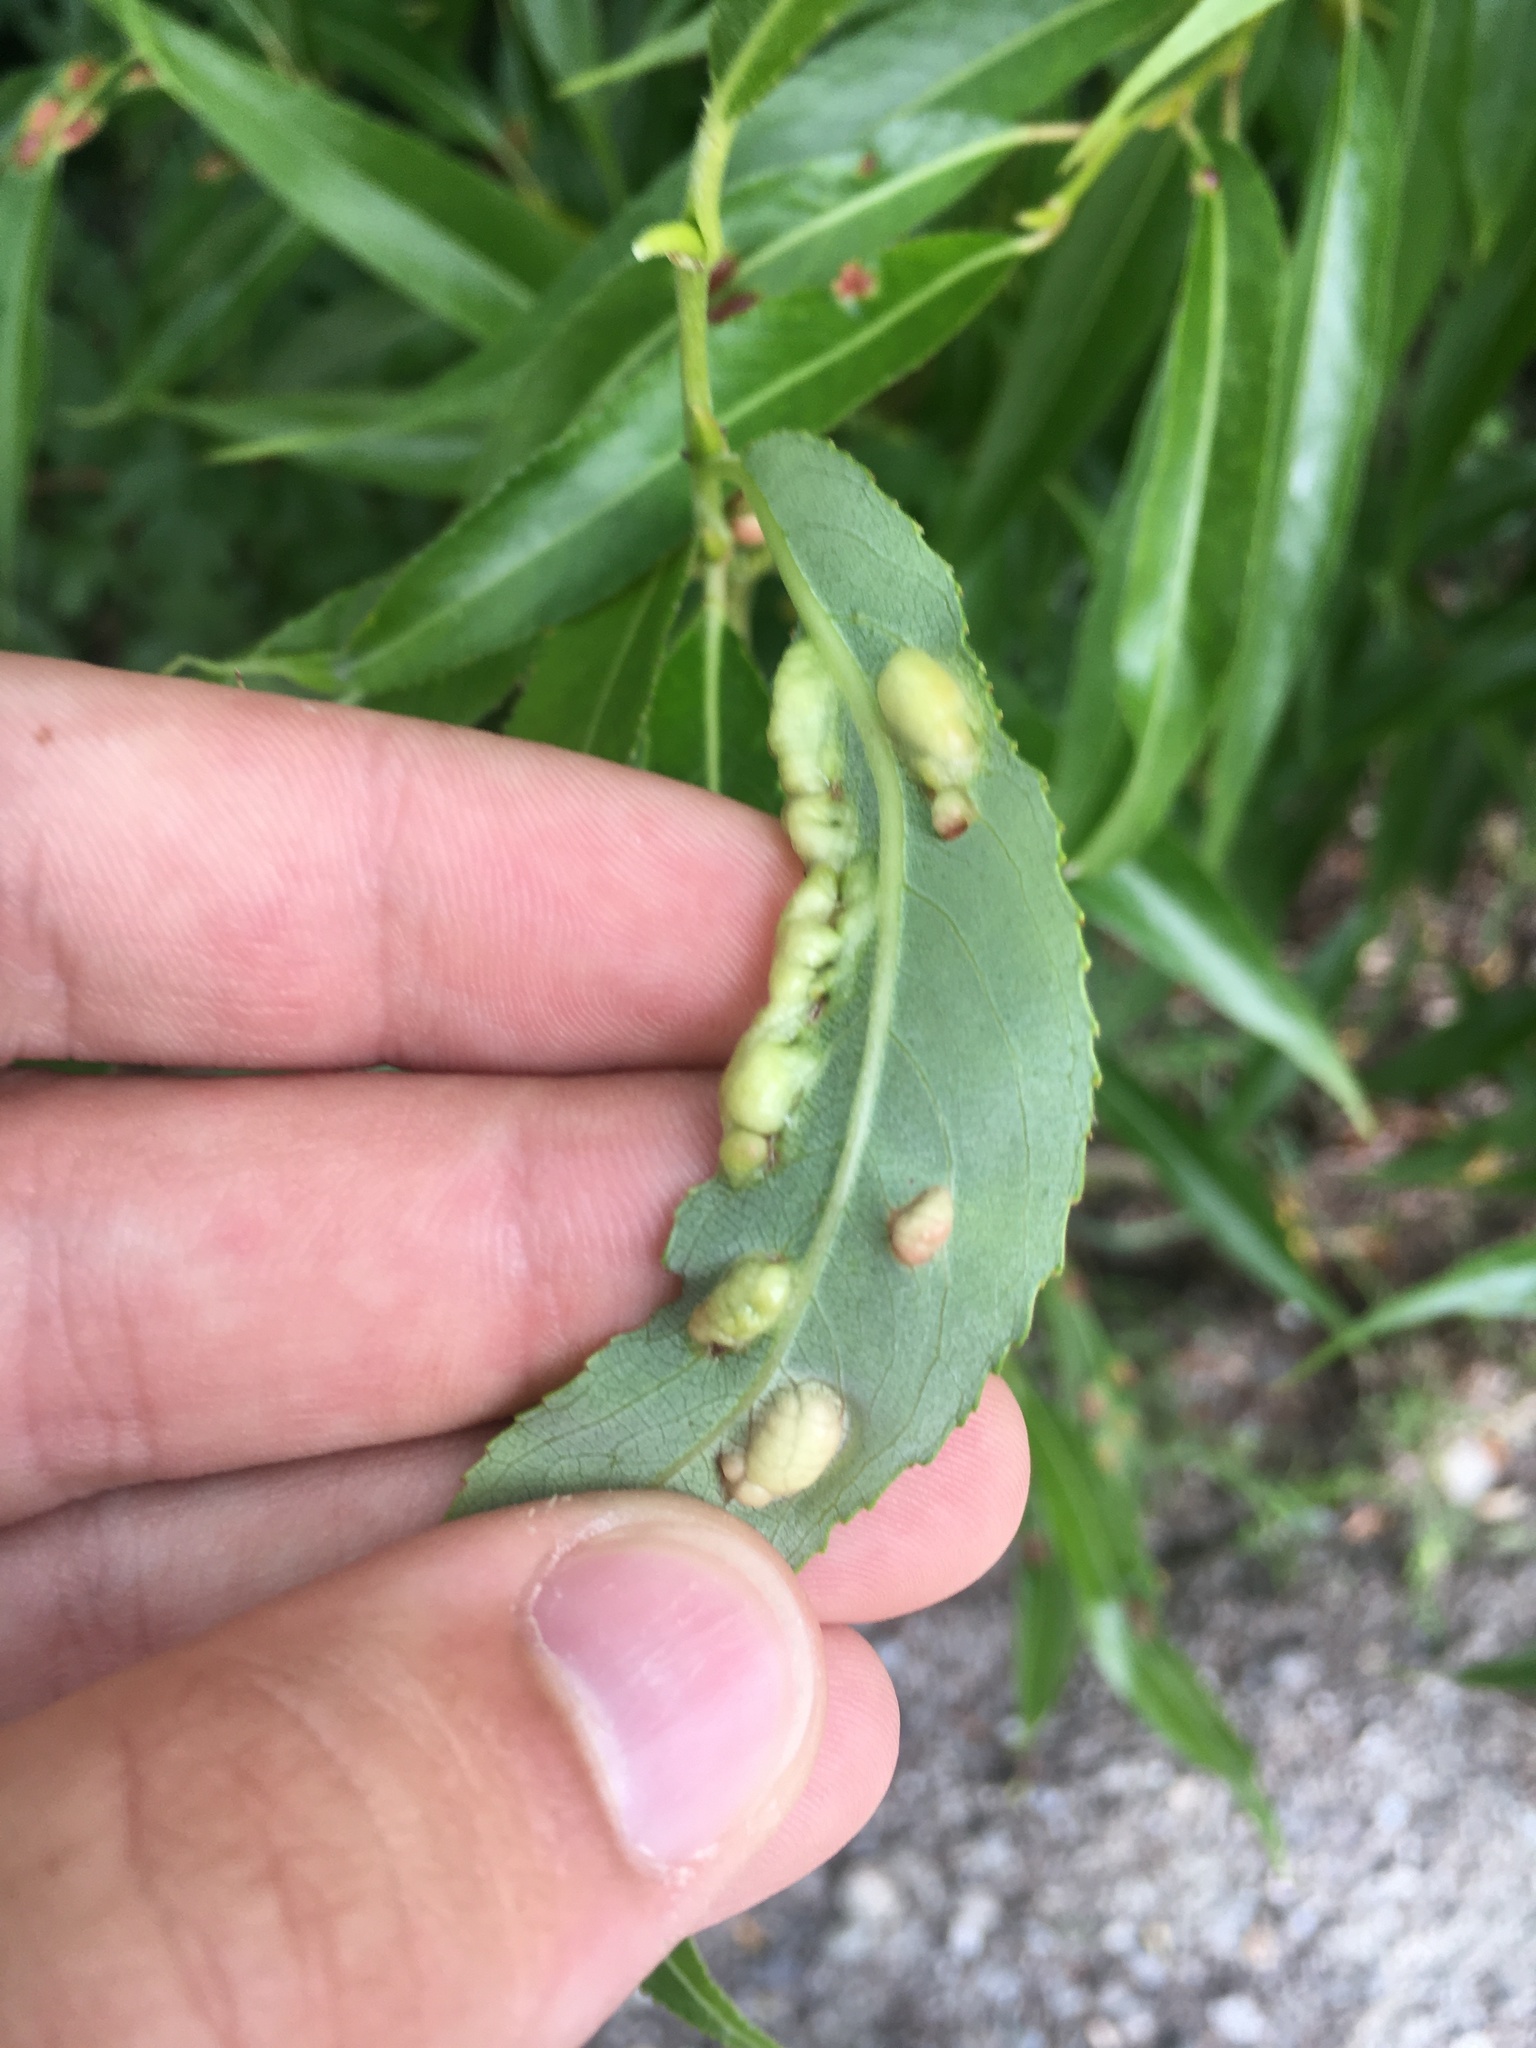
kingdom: Animalia
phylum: Arthropoda
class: Insecta
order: Hymenoptera
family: Tenthredinidae
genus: Pontania
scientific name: Pontania proxima
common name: Common sawfly
